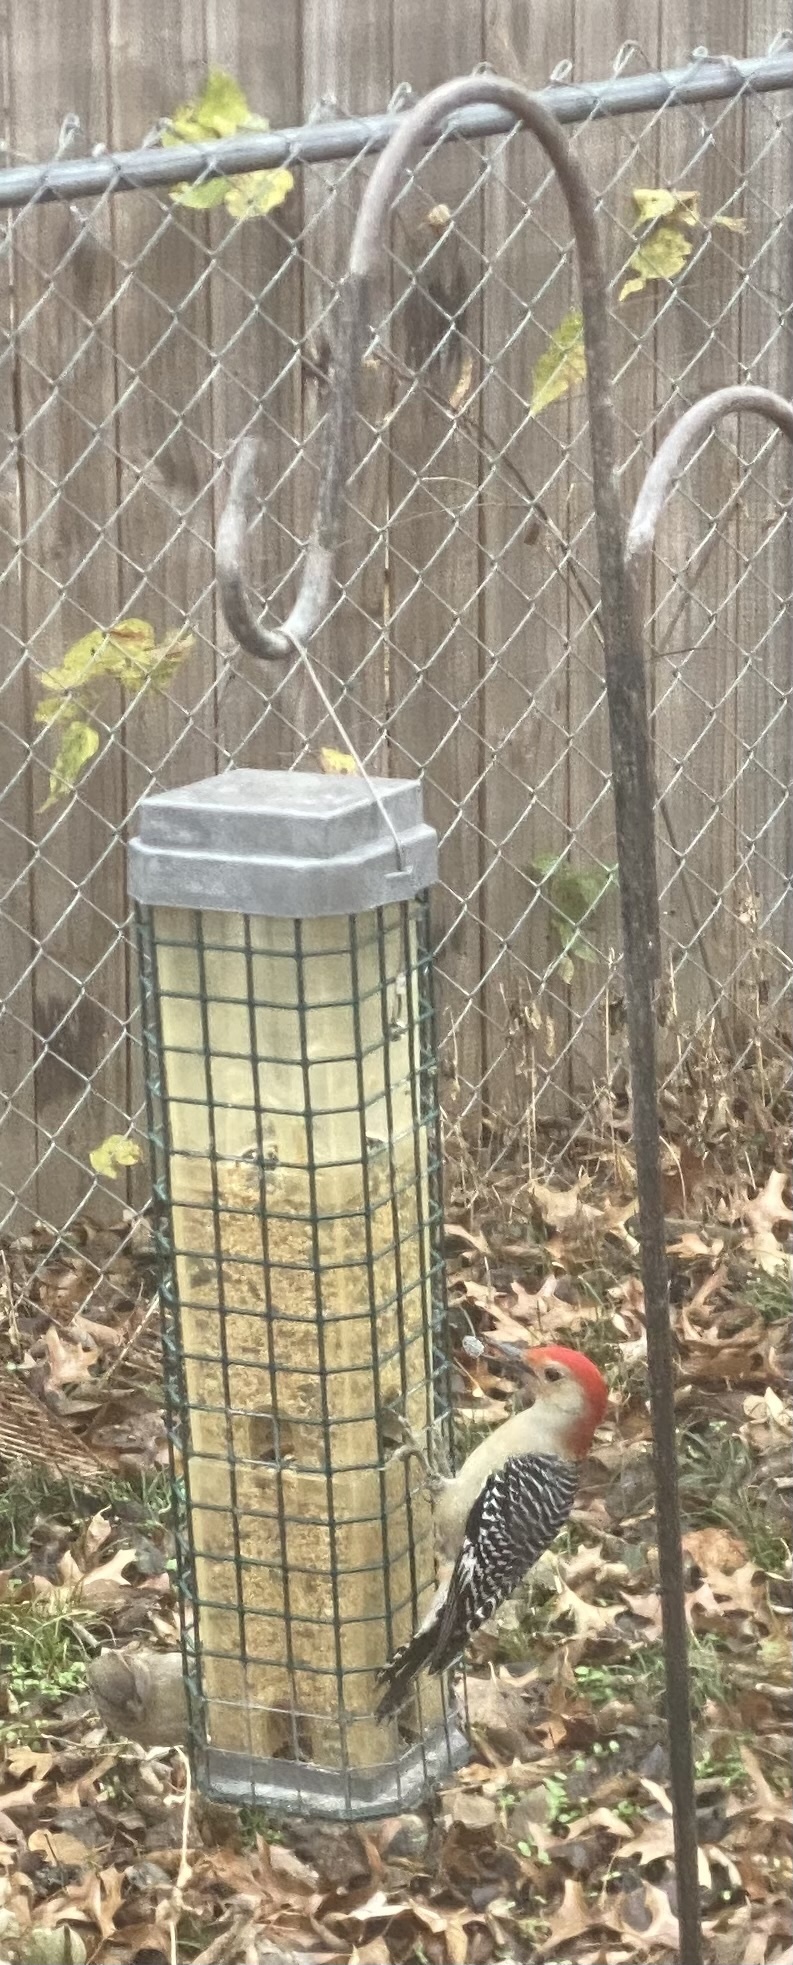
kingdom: Animalia
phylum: Chordata
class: Aves
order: Piciformes
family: Picidae
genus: Melanerpes
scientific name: Melanerpes carolinus
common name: Red-bellied woodpecker
